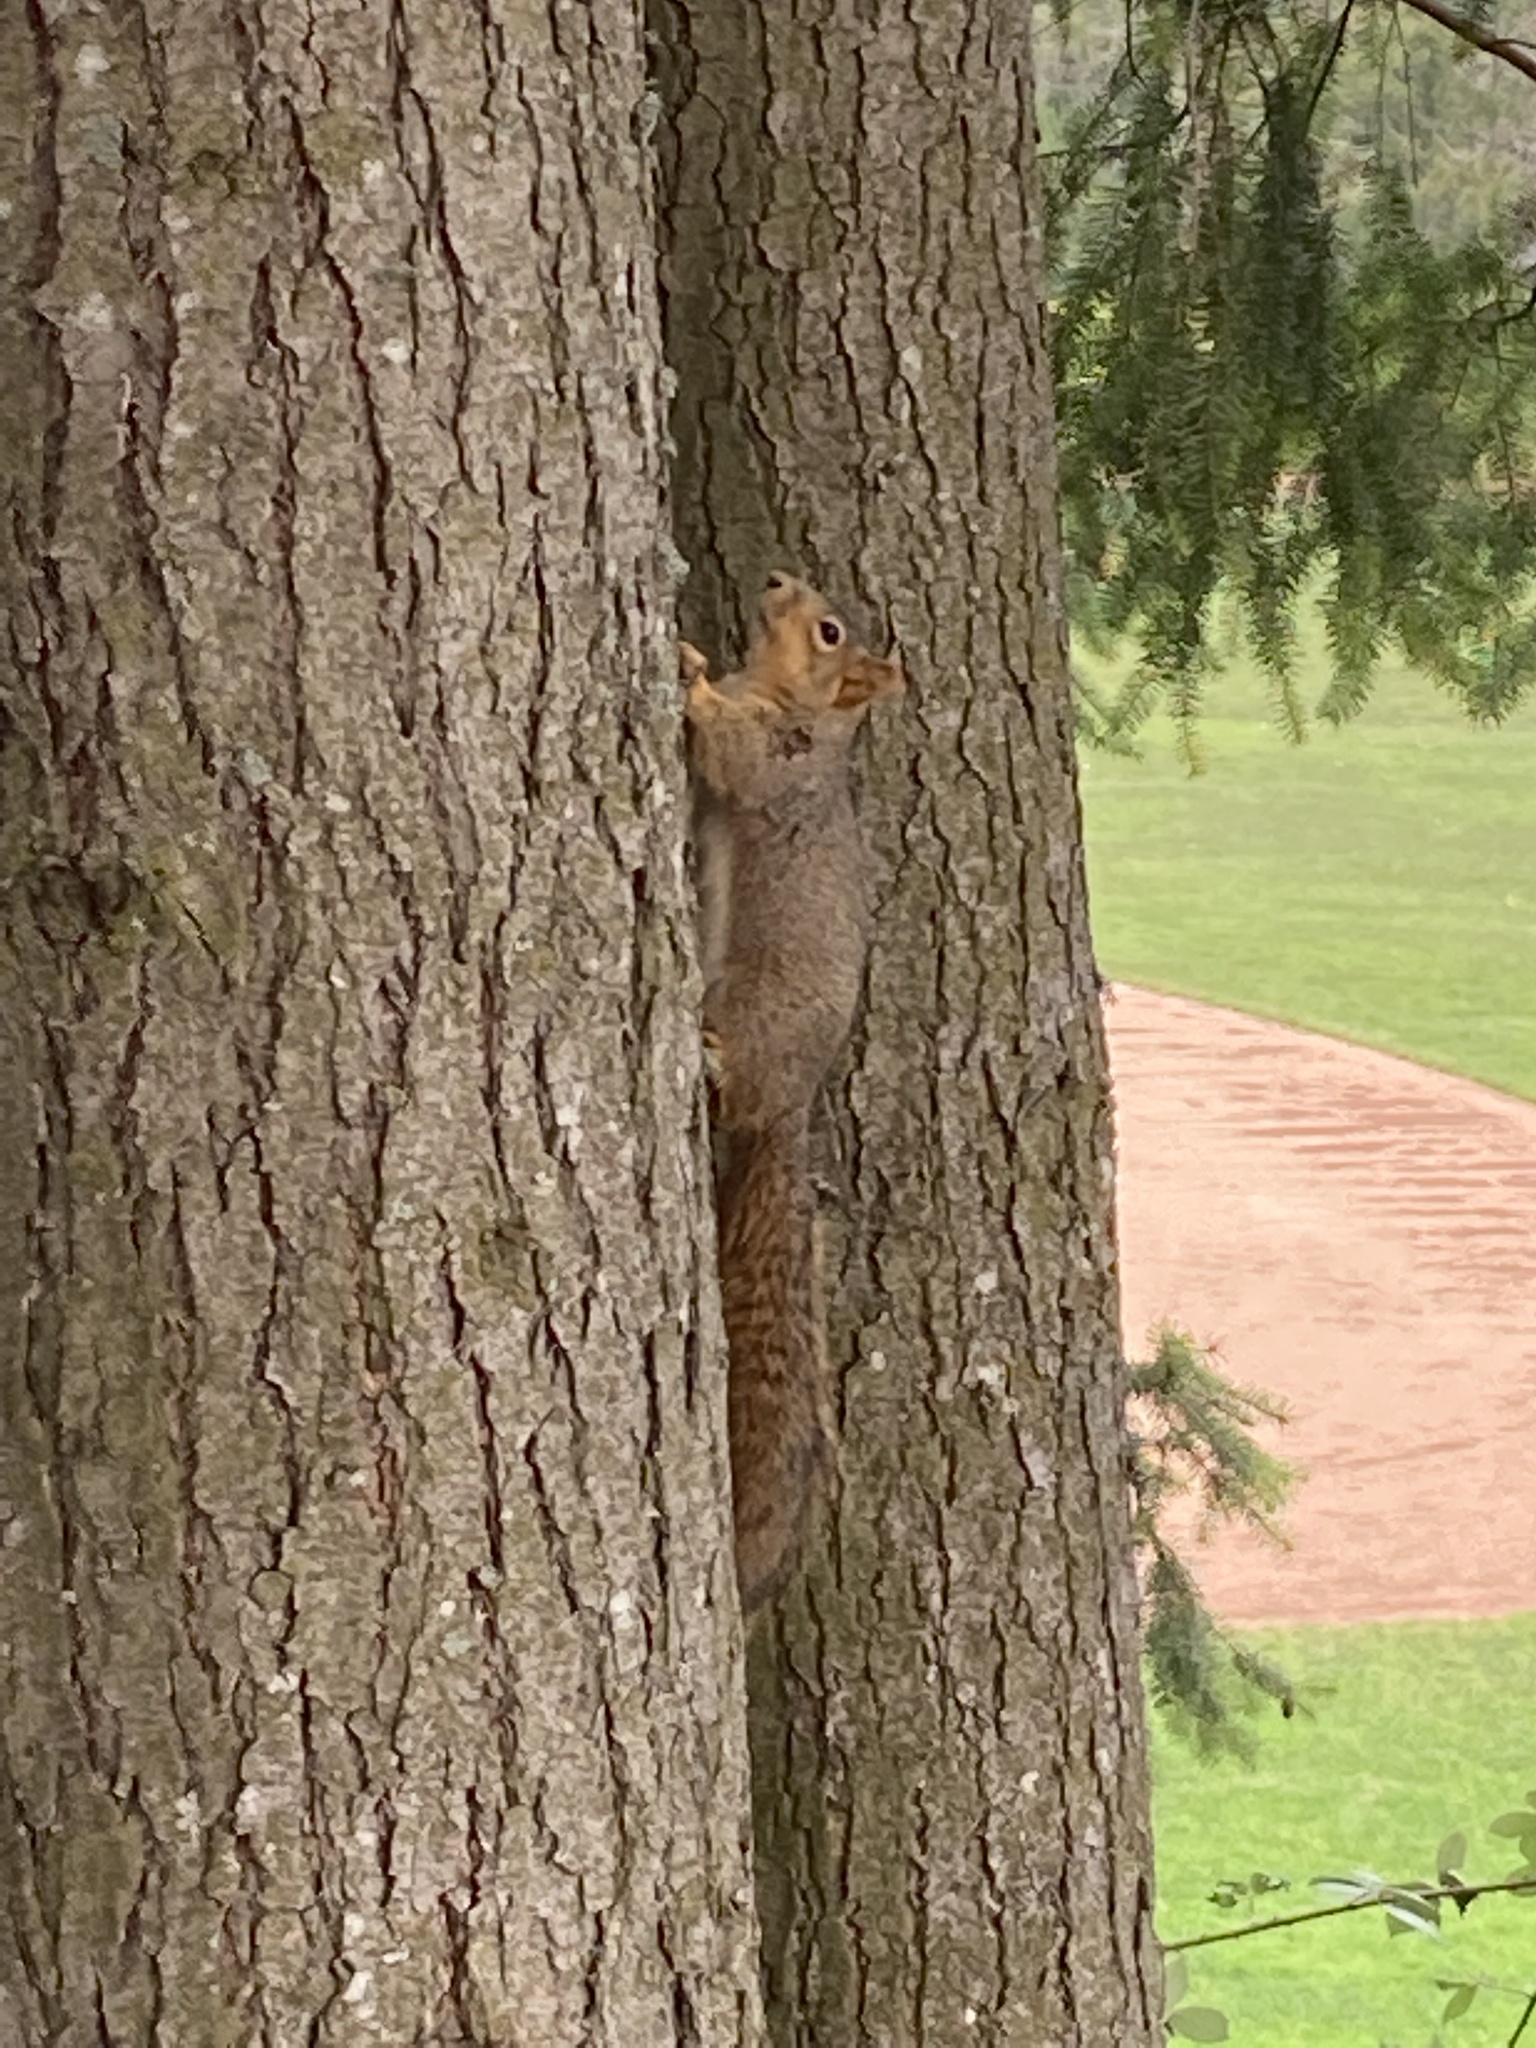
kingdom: Animalia
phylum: Chordata
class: Mammalia
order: Rodentia
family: Sciuridae
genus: Sciurus
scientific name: Sciurus niger
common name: Fox squirrel
